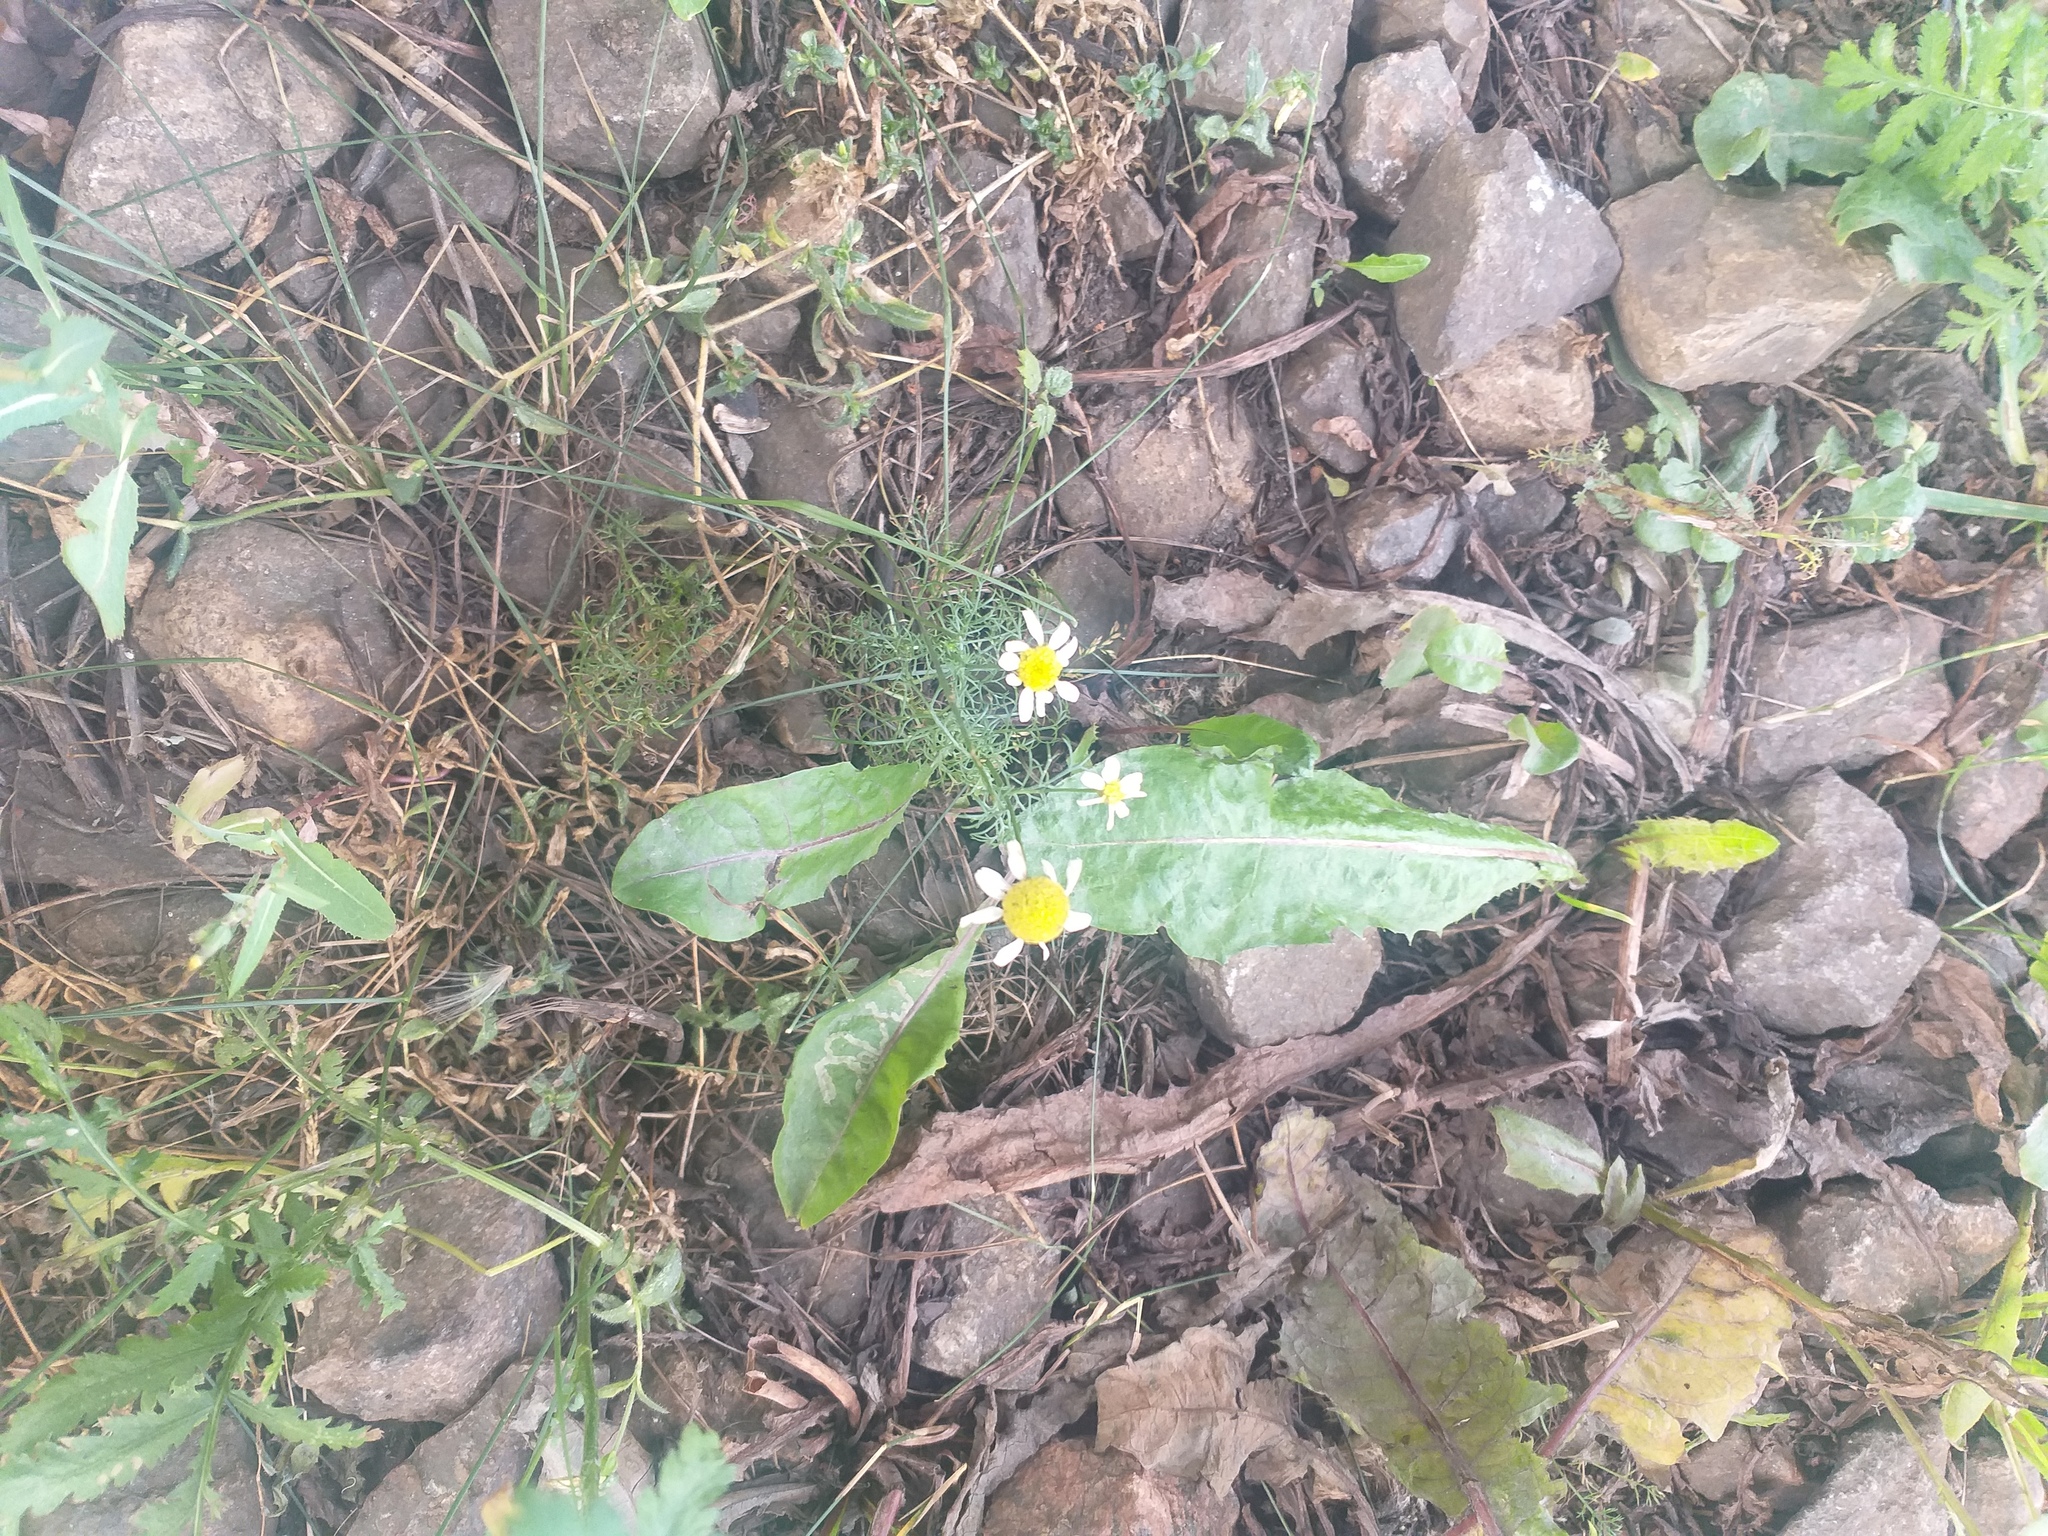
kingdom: Plantae
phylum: Tracheophyta
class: Magnoliopsida
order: Asterales
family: Asteraceae
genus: Tripleurospermum
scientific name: Tripleurospermum inodorum
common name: Scentless mayweed
